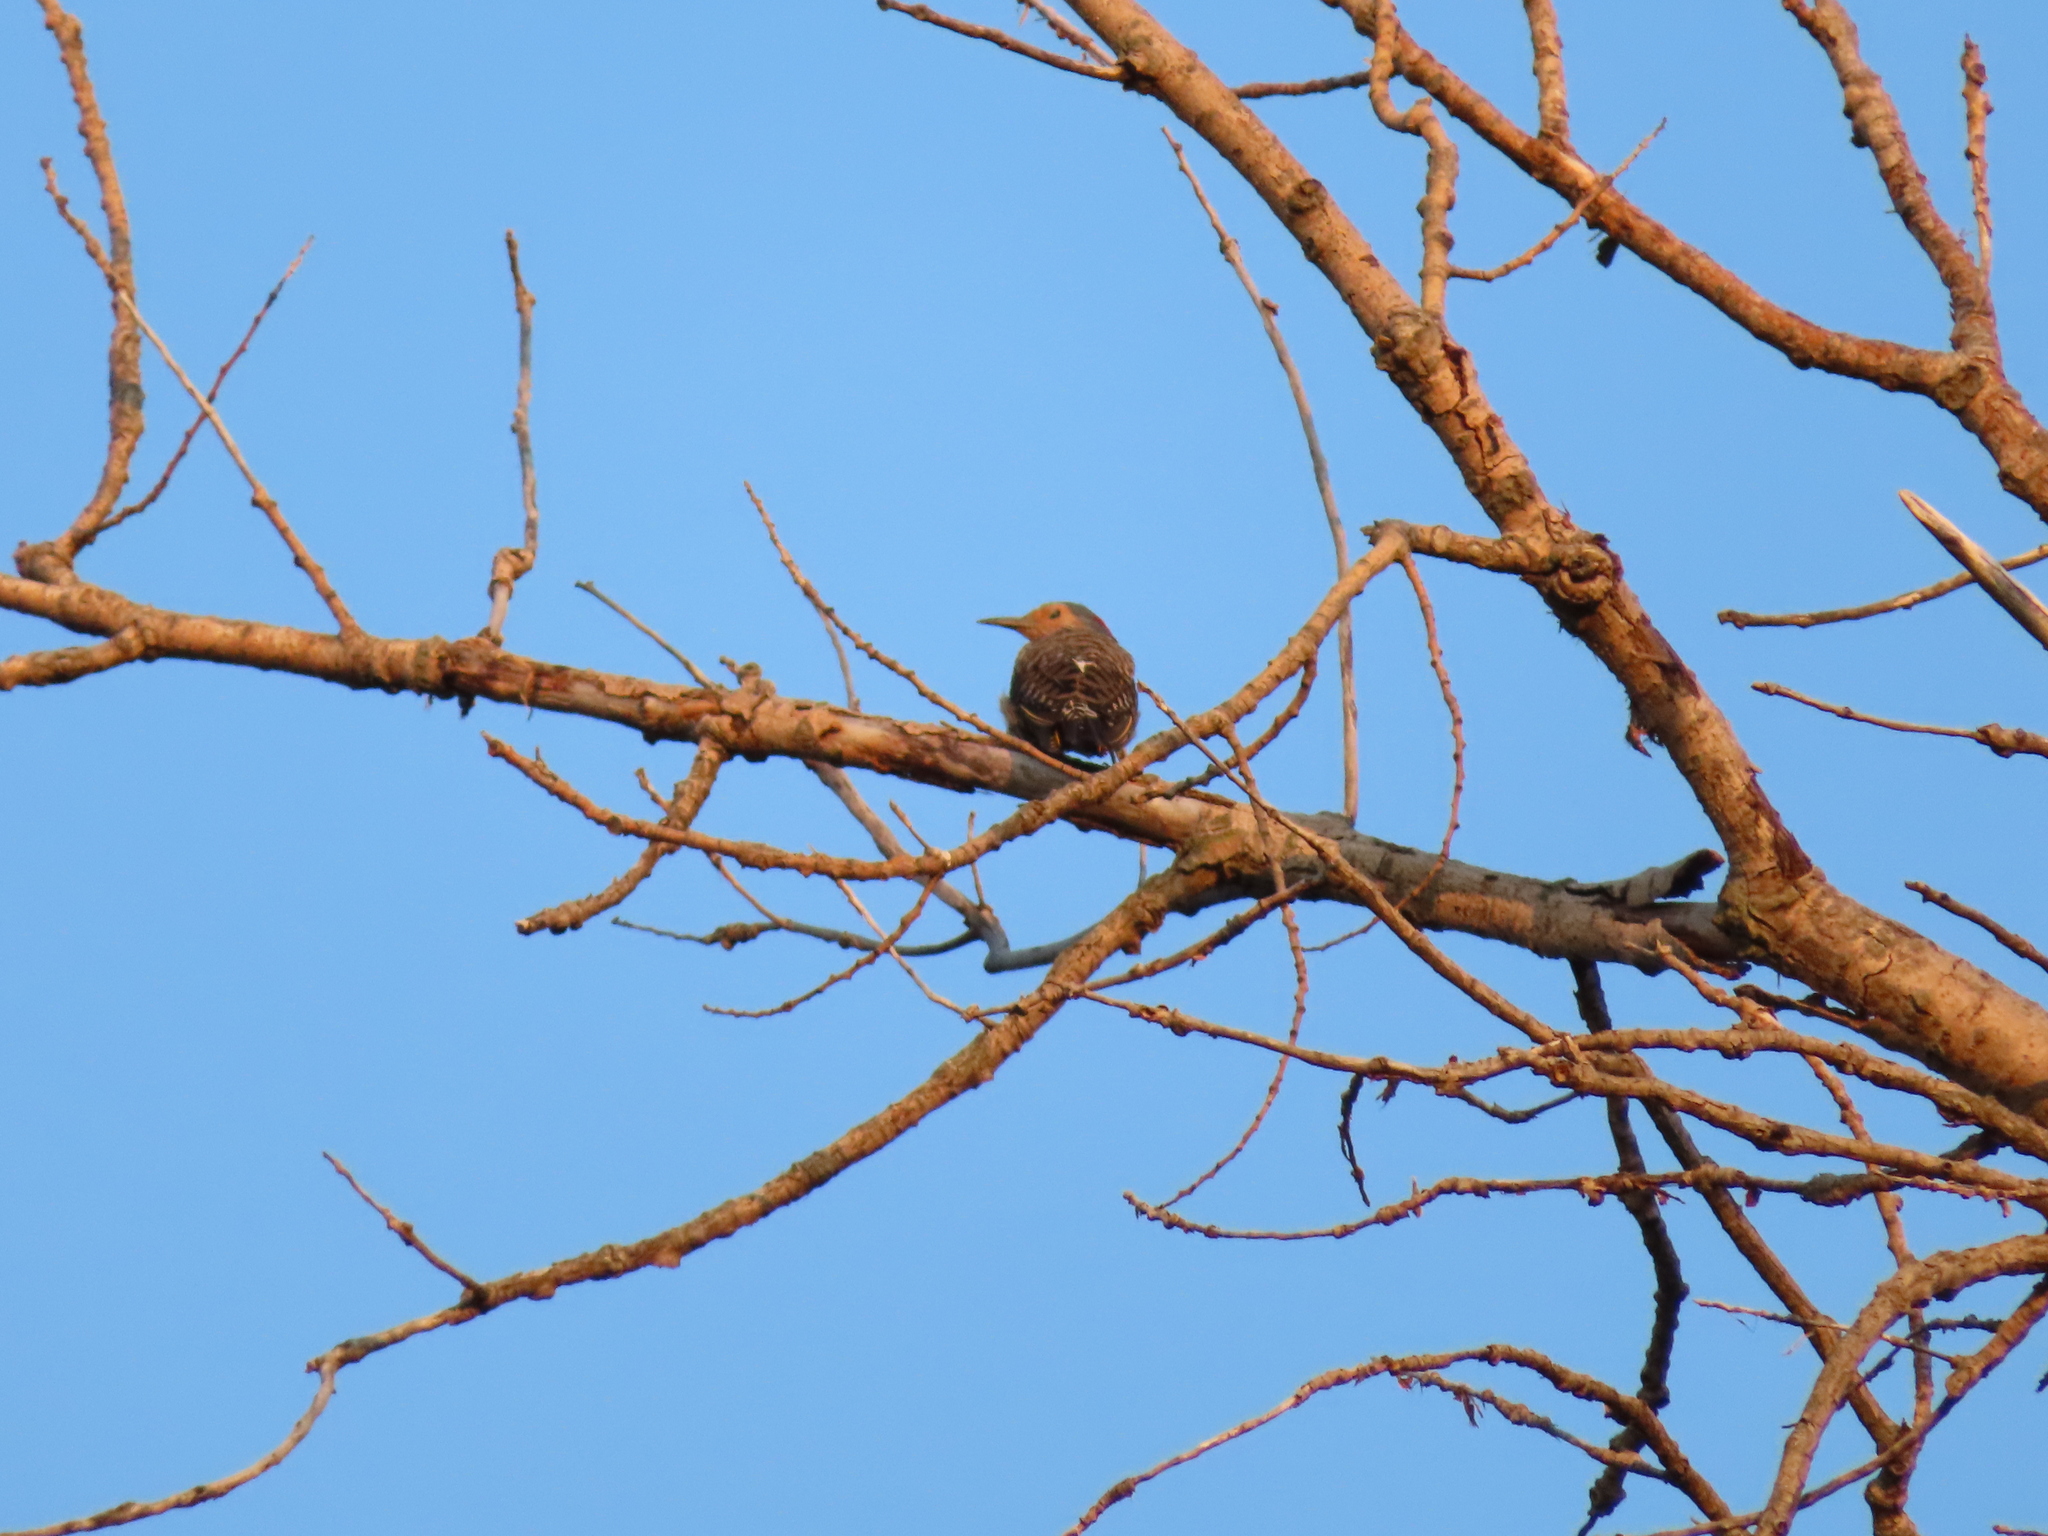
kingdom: Animalia
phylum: Chordata
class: Aves
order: Piciformes
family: Picidae
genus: Colaptes
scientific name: Colaptes auratus
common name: Northern flicker
